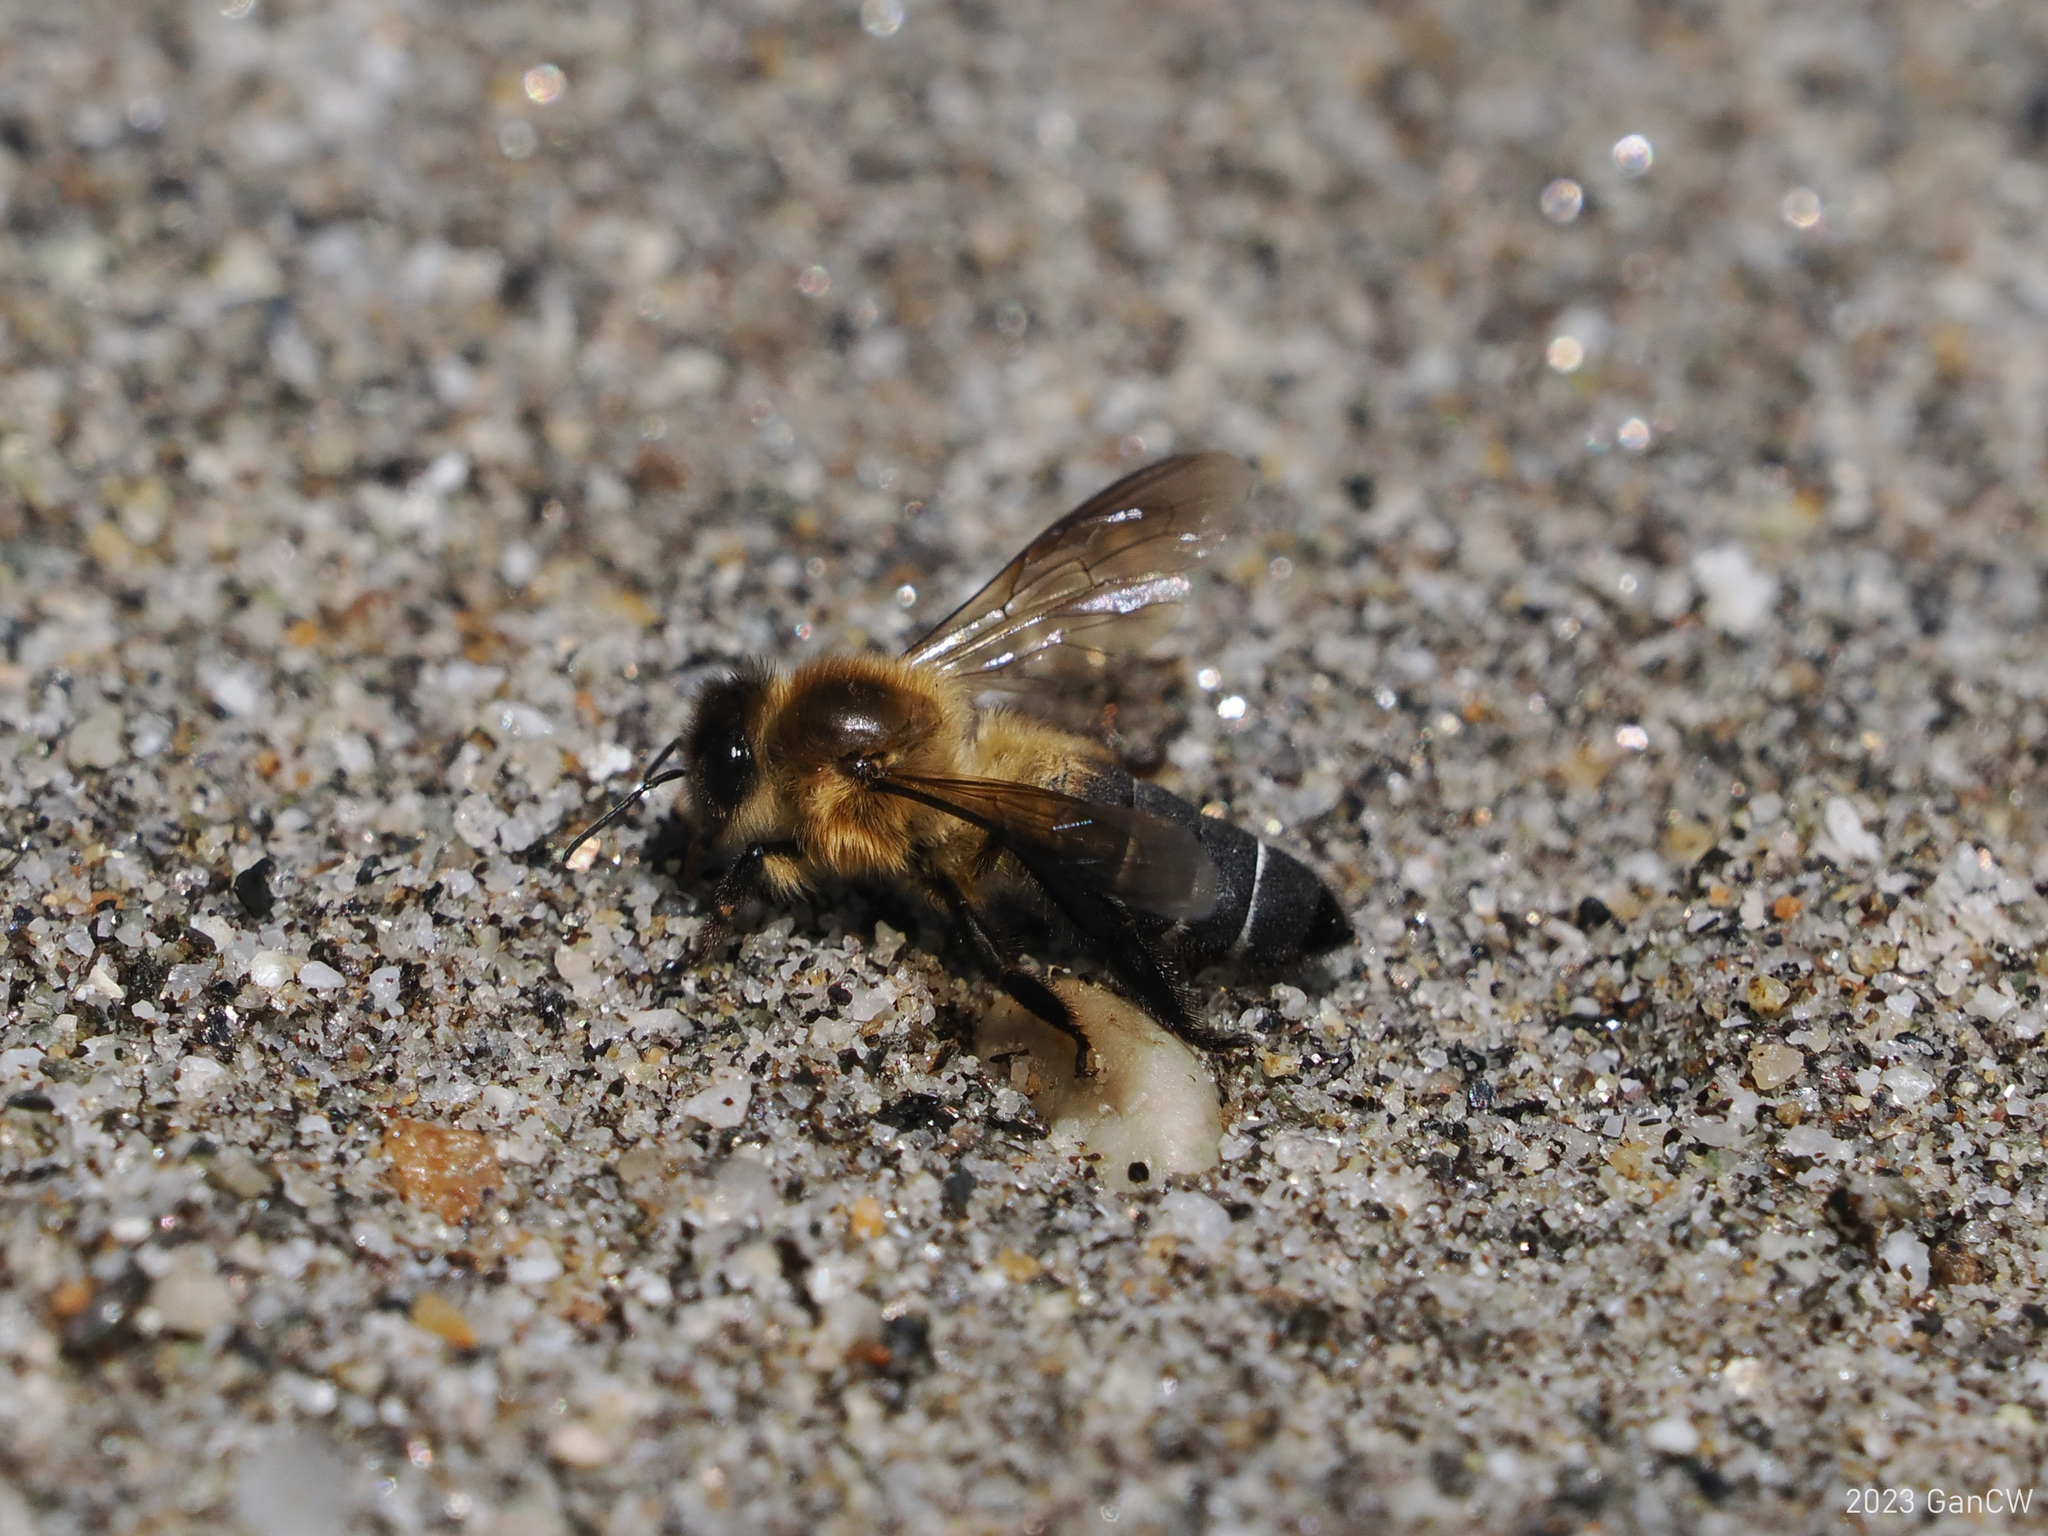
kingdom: Animalia
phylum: Arthropoda
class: Insecta
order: Hymenoptera
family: Apidae
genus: Apis
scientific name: Apis laboriosa
